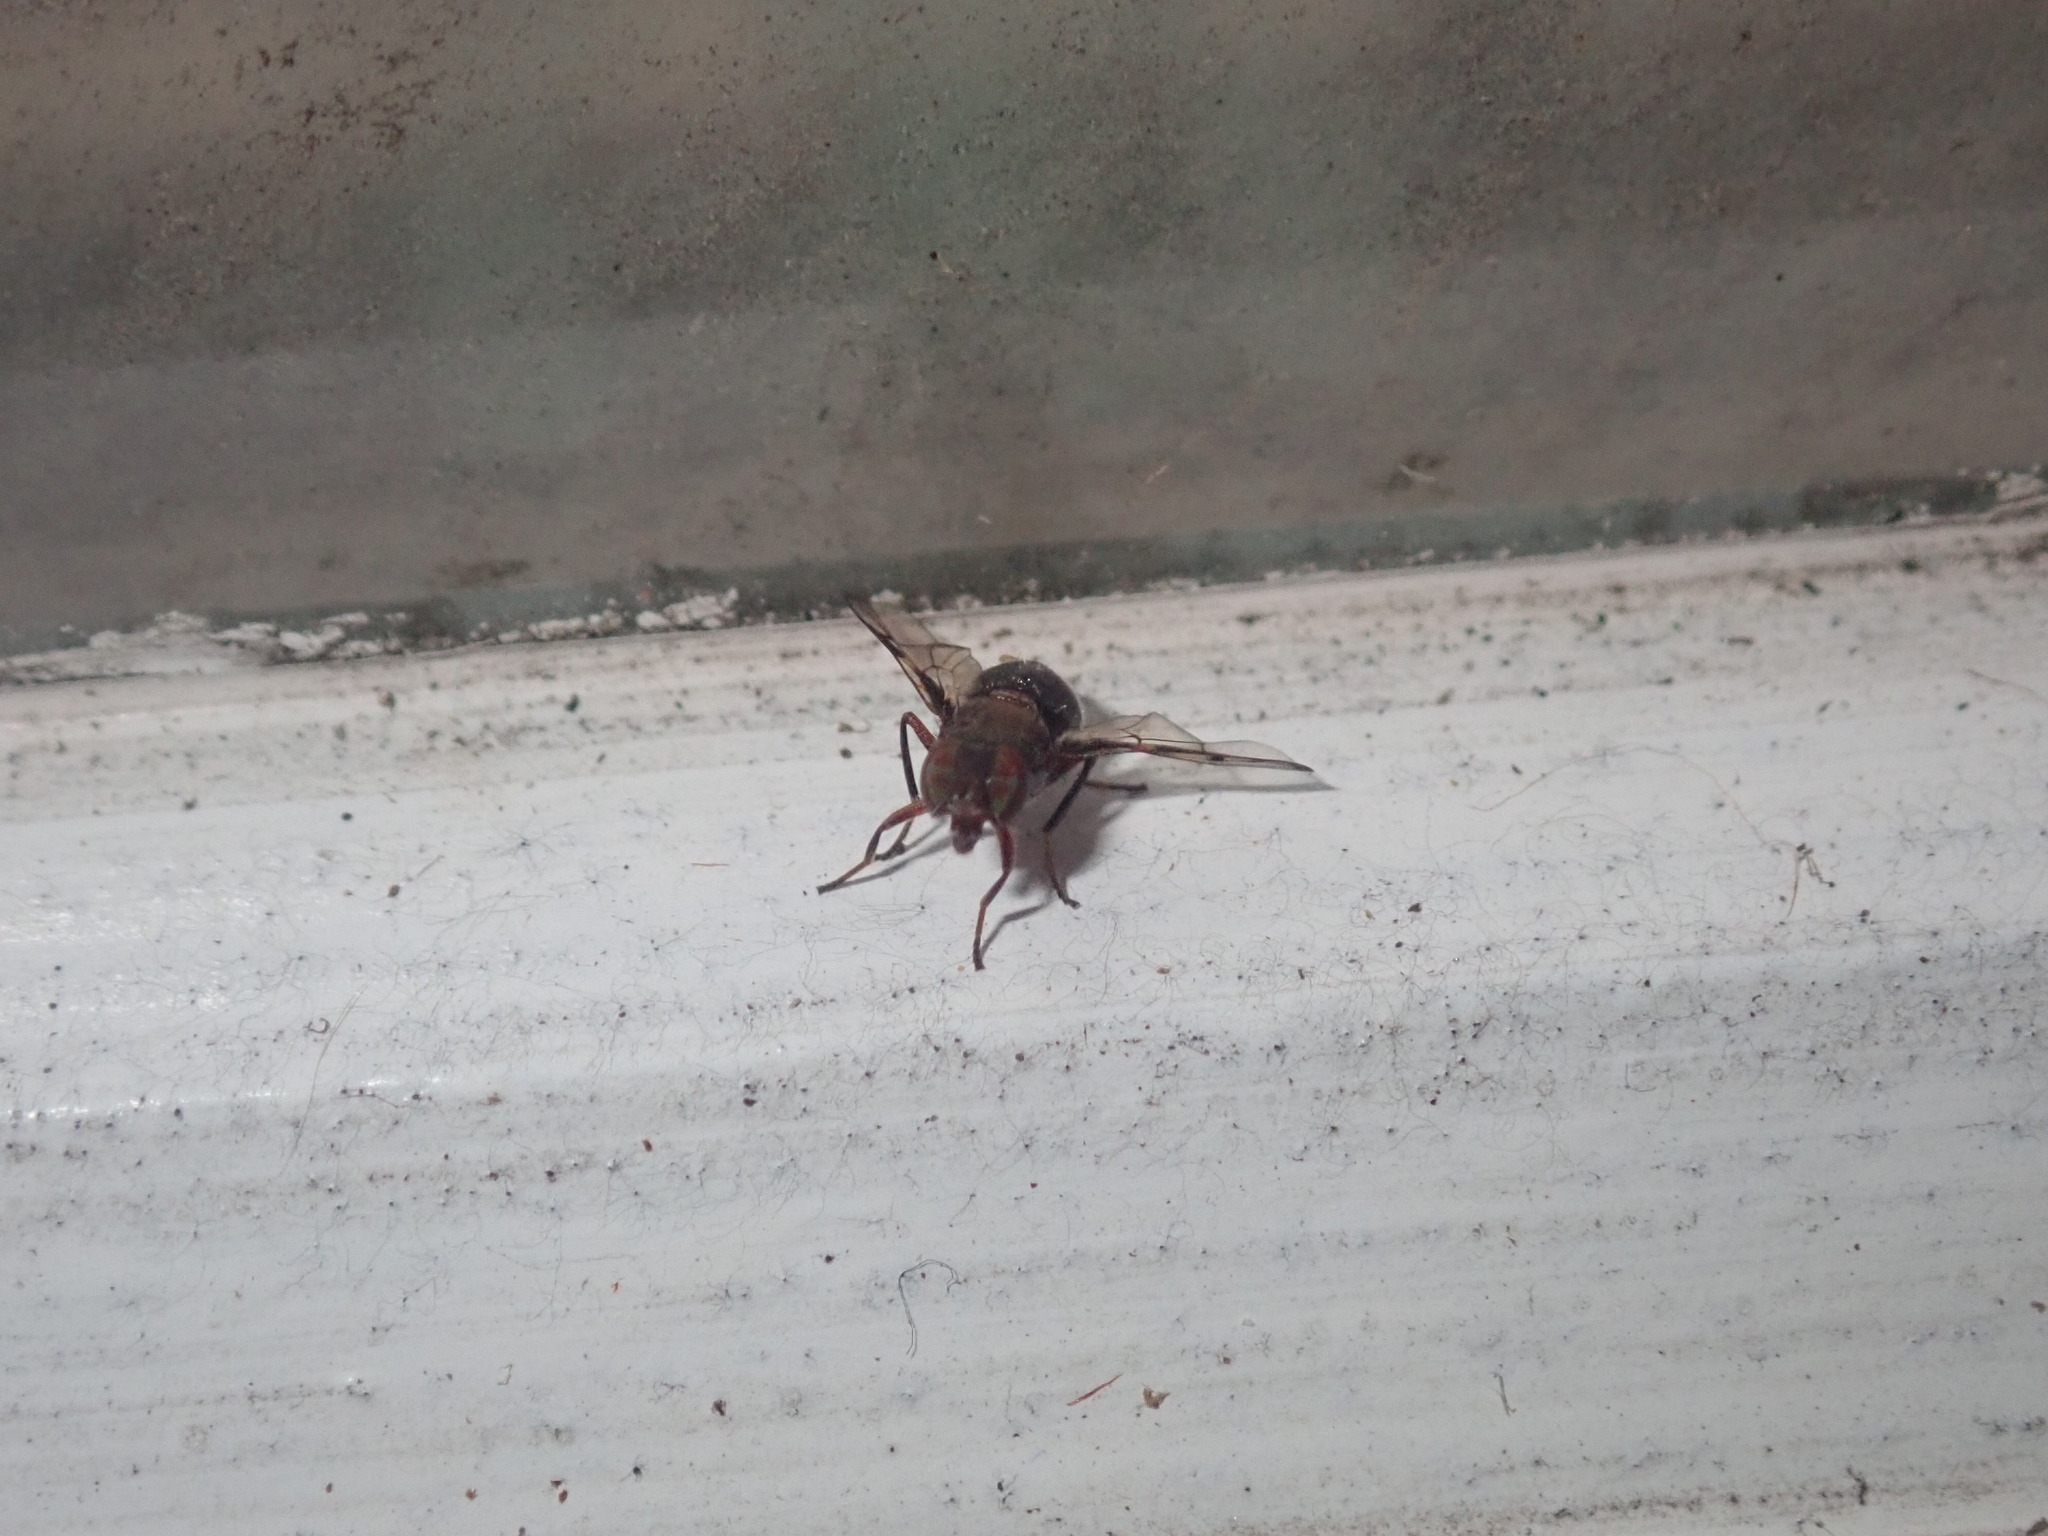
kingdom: Animalia
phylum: Arthropoda
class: Insecta
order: Diptera
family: Platystomatidae
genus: Pogonortalis
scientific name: Pogonortalis doclea
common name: Boatman fly
